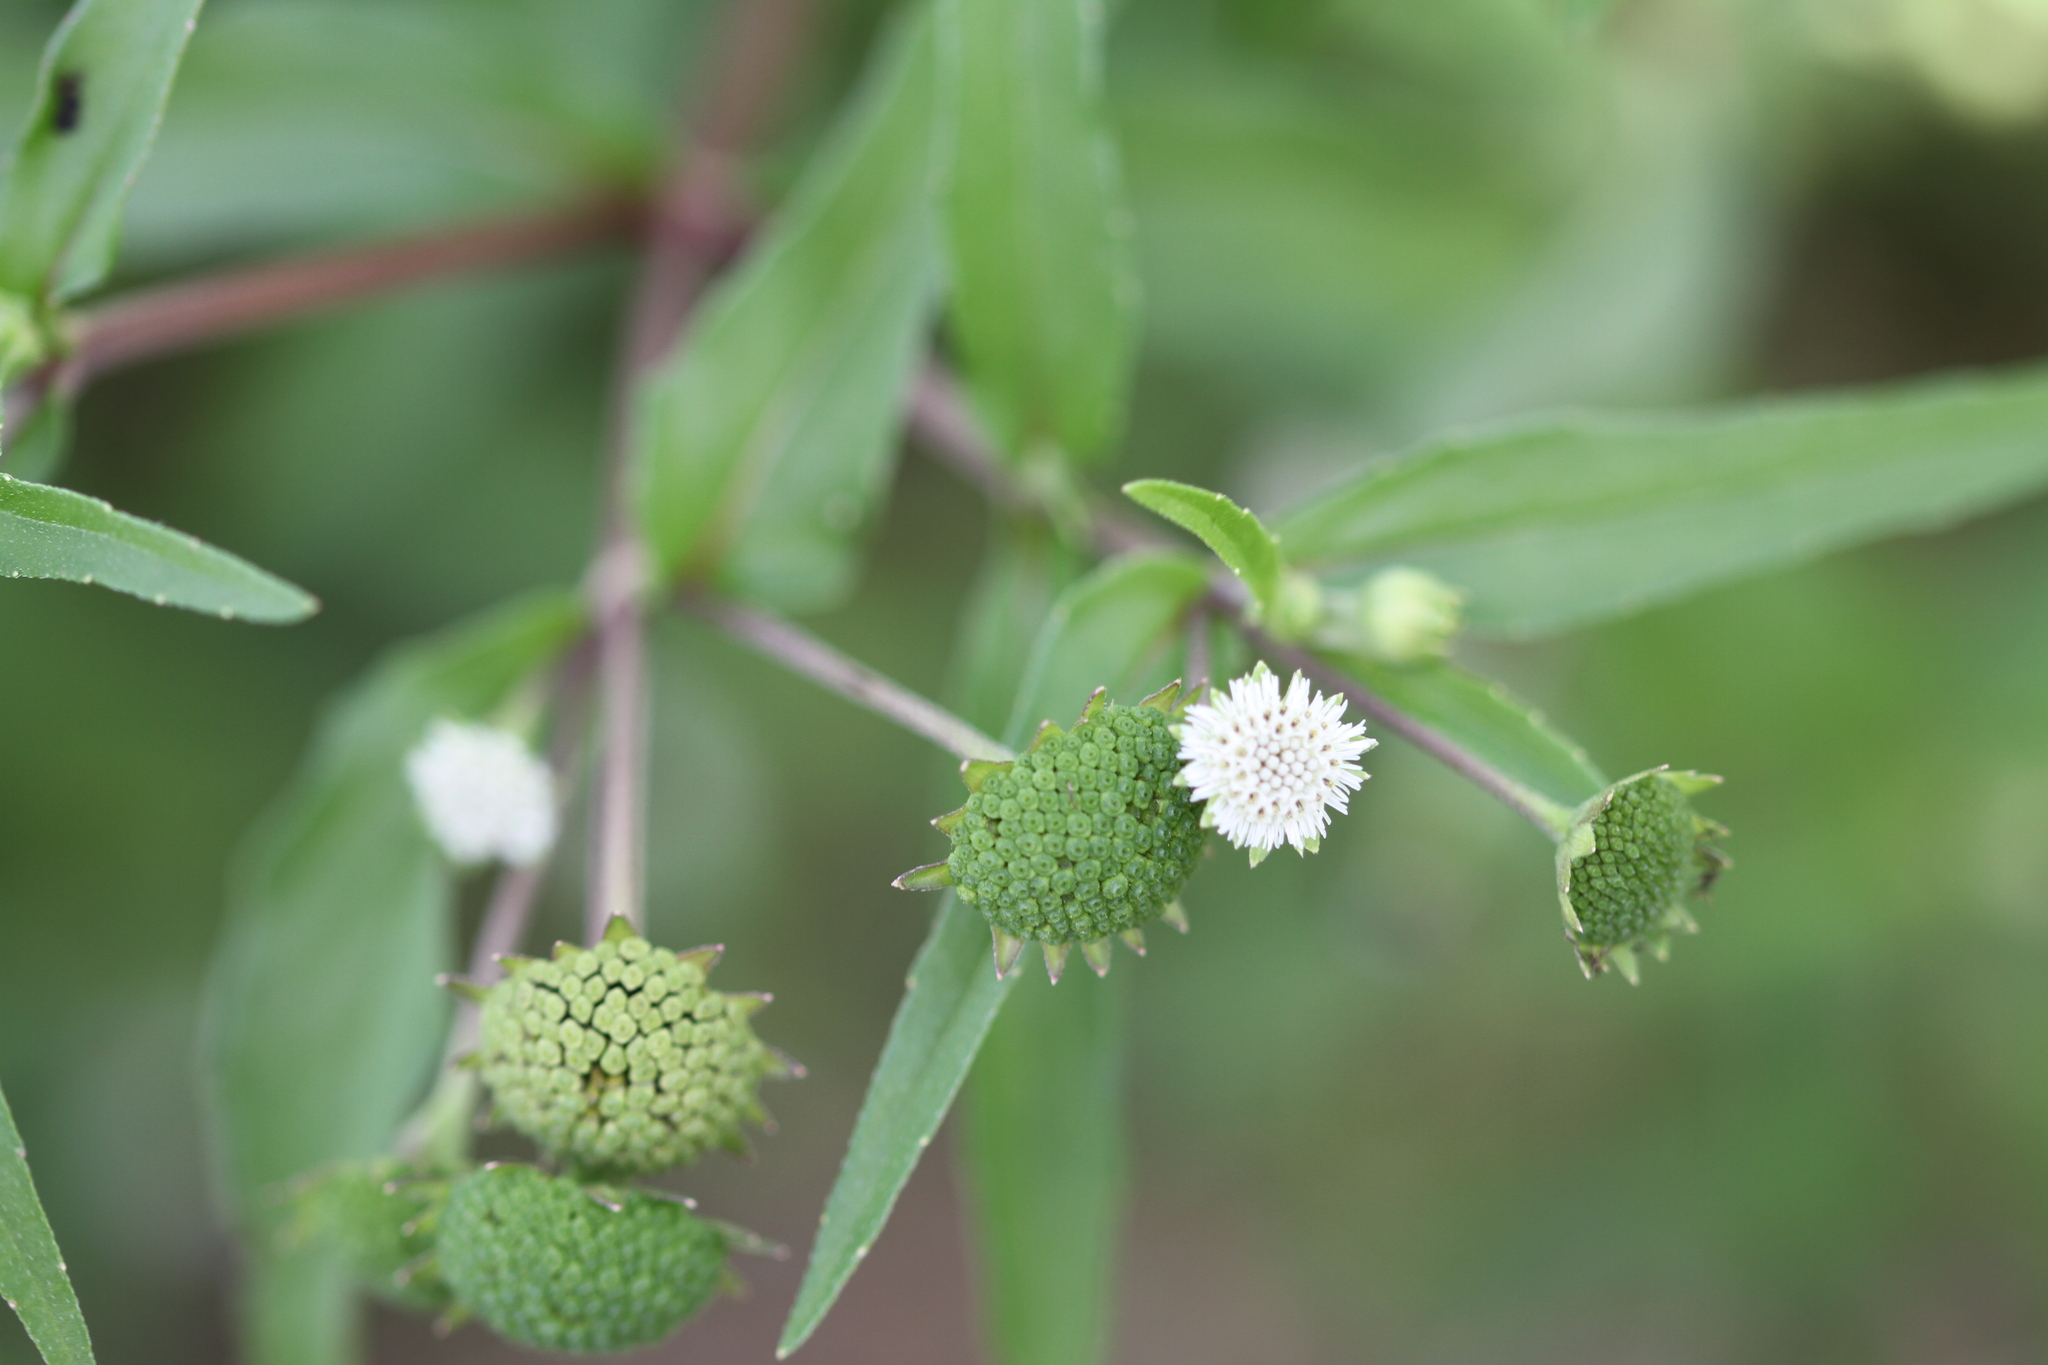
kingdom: Plantae
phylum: Tracheophyta
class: Magnoliopsida
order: Asterales
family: Asteraceae
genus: Eclipta
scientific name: Eclipta prostrata
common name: False daisy
